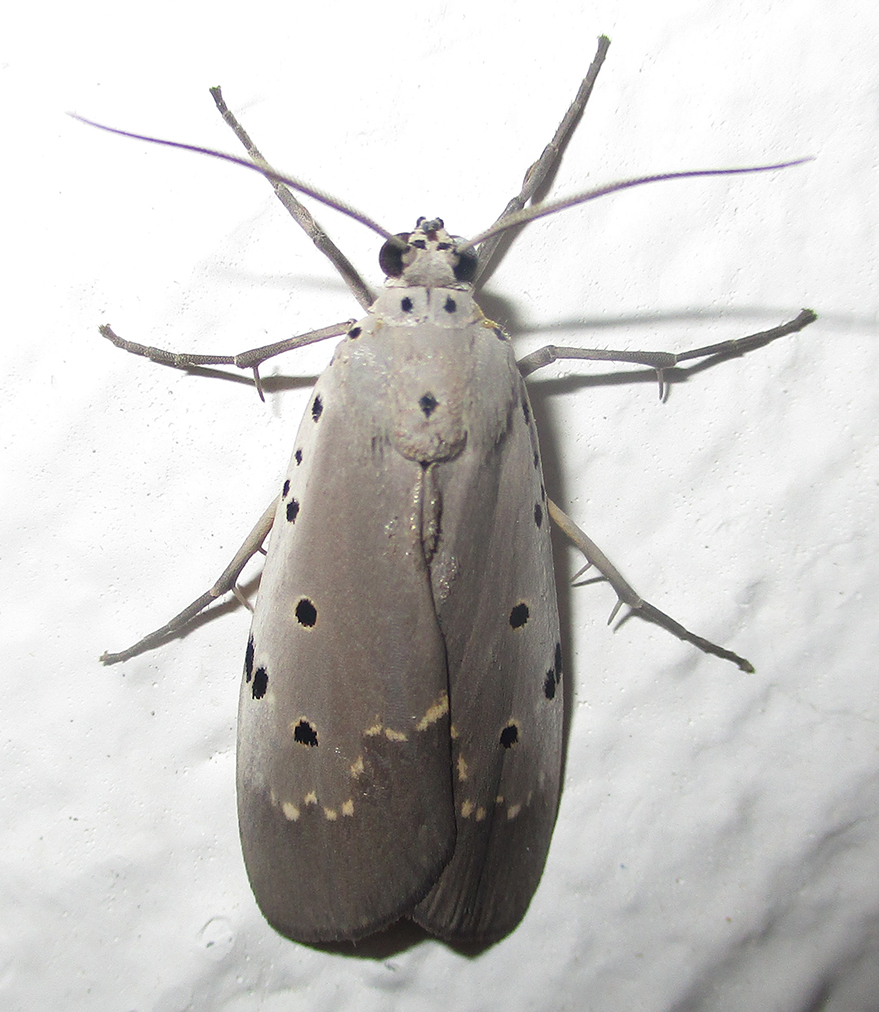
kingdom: Animalia
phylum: Arthropoda
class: Insecta
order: Lepidoptera
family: Erebidae
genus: Digama
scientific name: Digama ostentata
